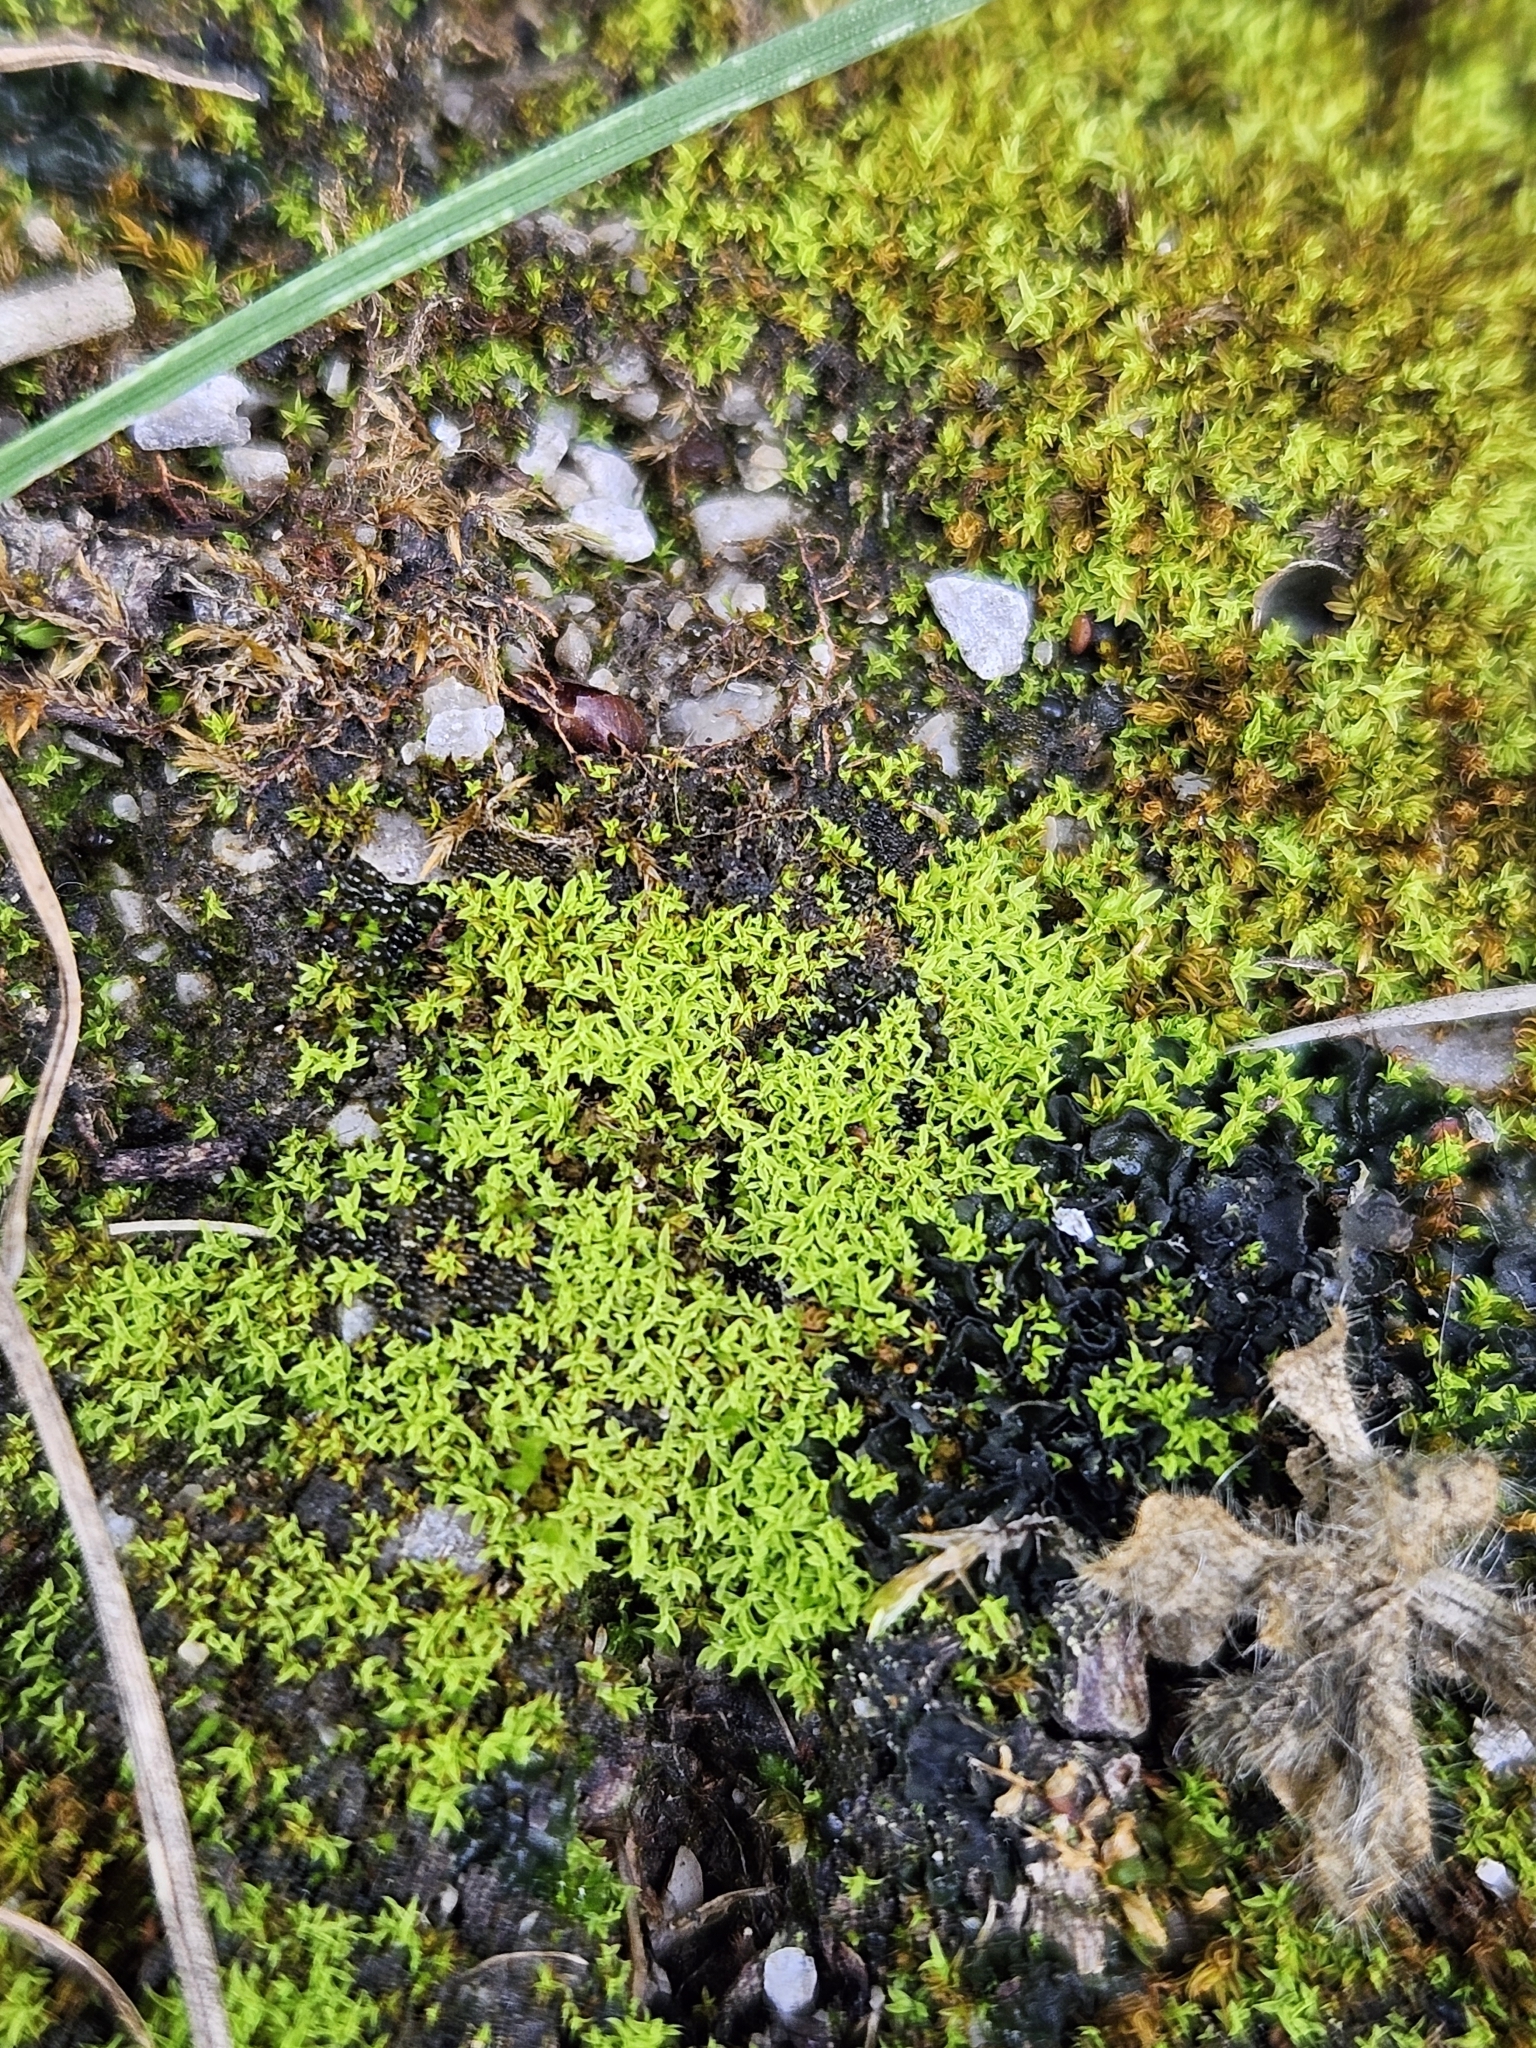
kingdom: Plantae
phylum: Bryophyta
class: Bryopsida
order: Pottiales
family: Pottiaceae
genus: Streblotrichum
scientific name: Streblotrichum convolutum
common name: Lesser bird's-claw beard-moss
